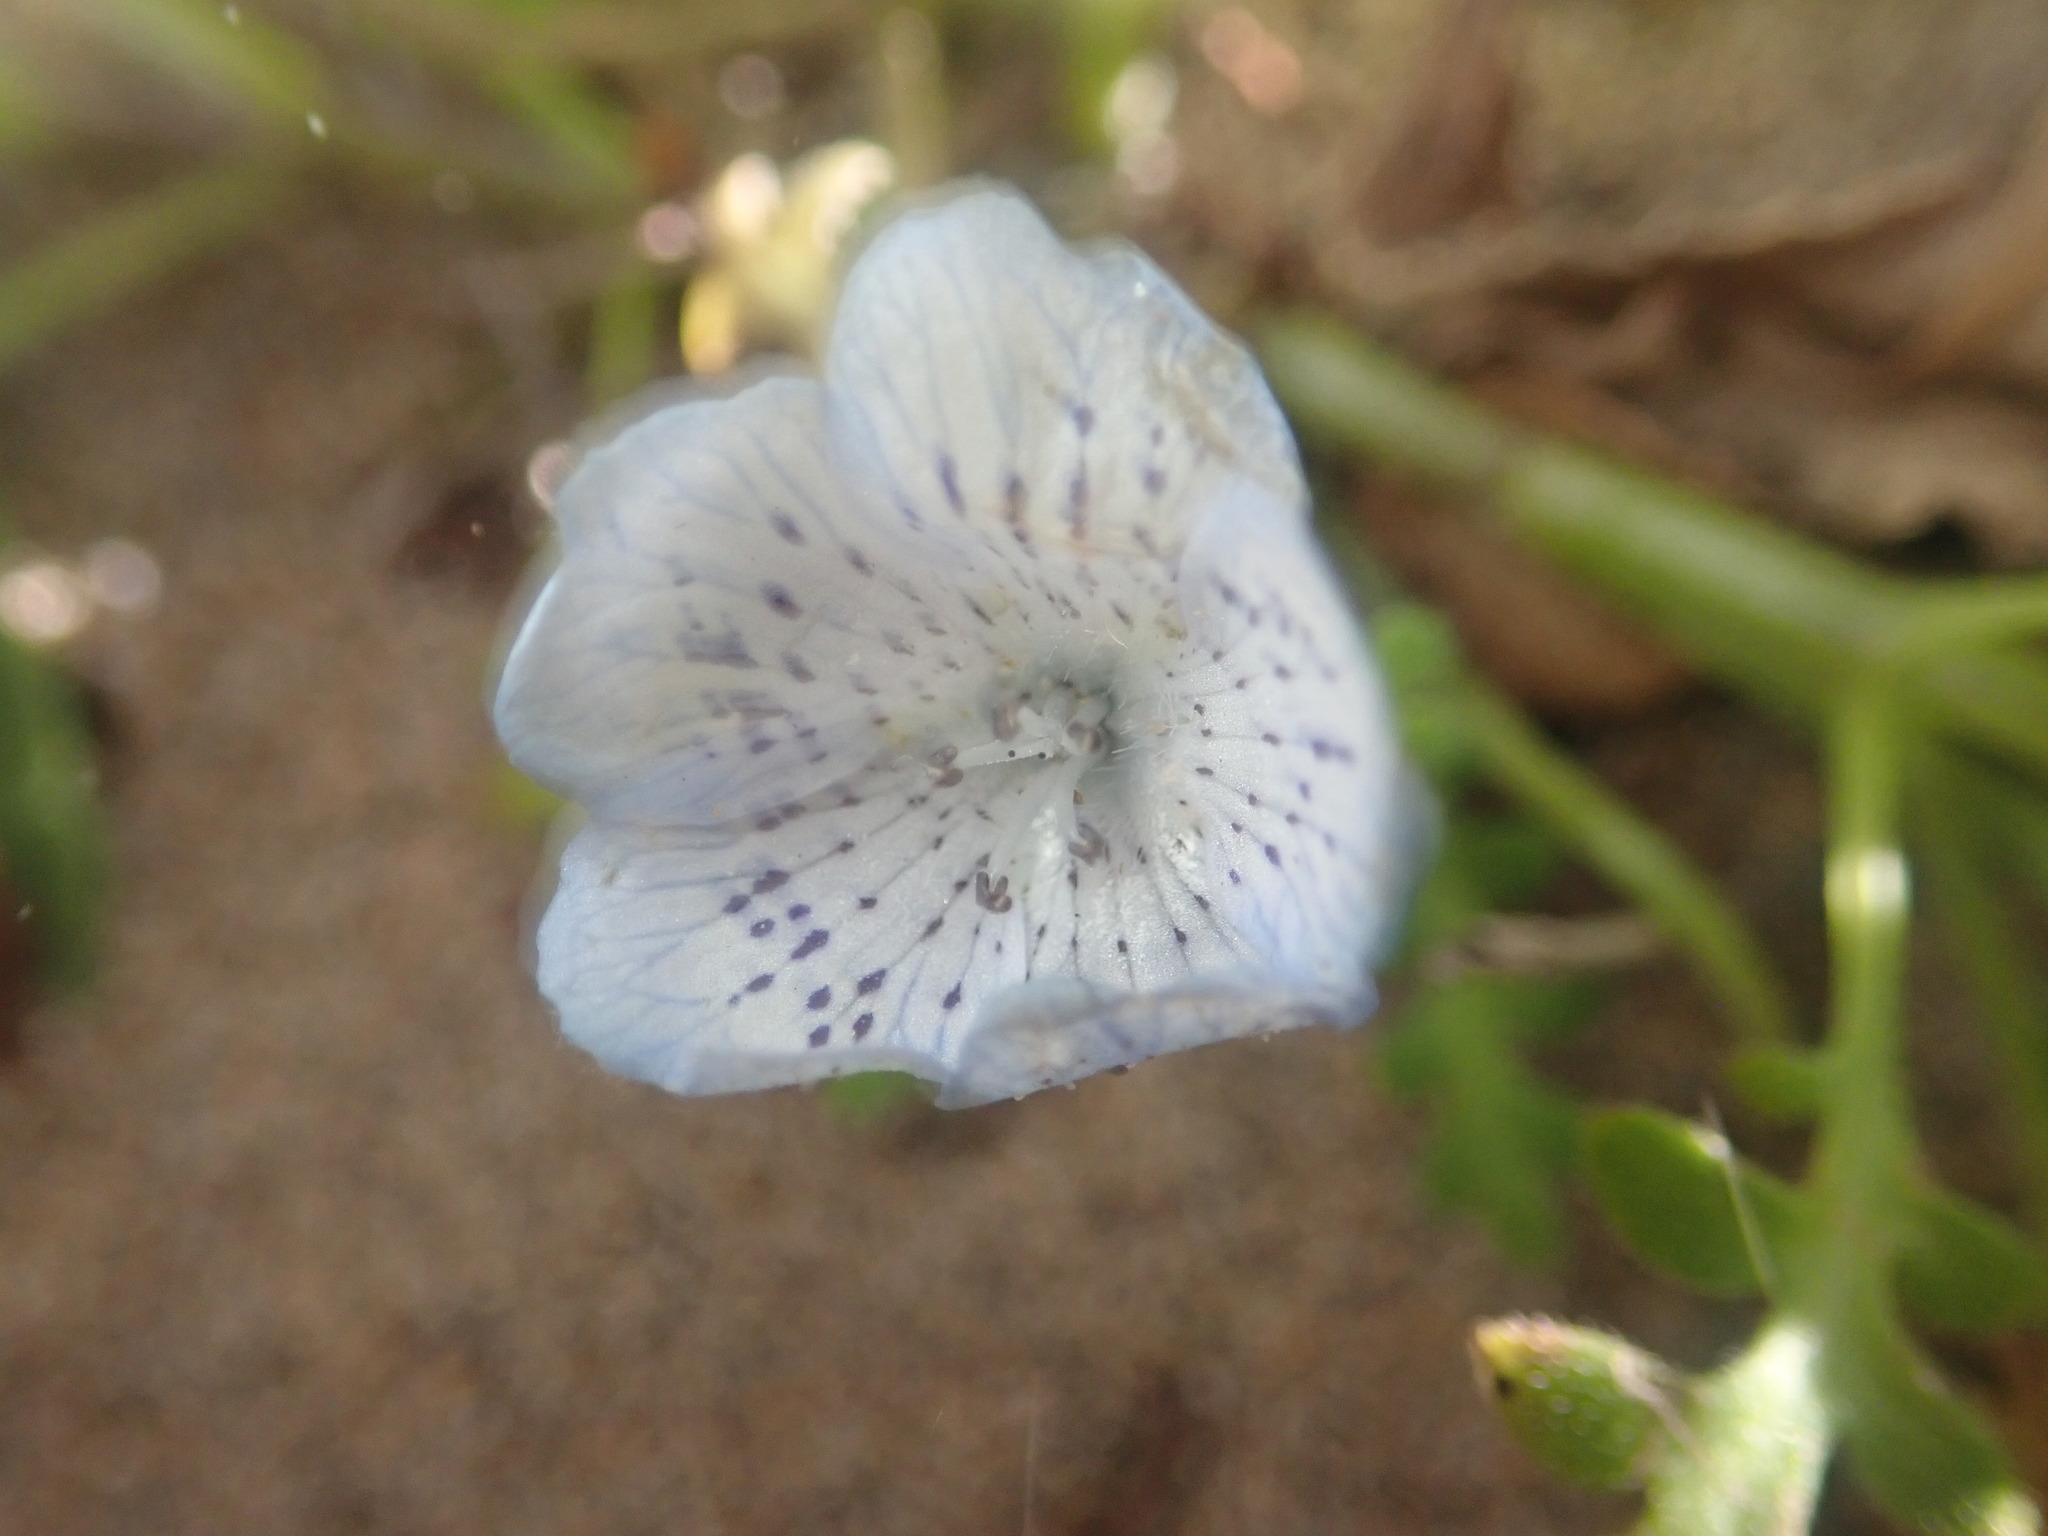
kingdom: Plantae
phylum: Tracheophyta
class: Magnoliopsida
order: Boraginales
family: Hydrophyllaceae
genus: Nemophila
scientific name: Nemophila menziesii
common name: Baby's-blue-eyes
